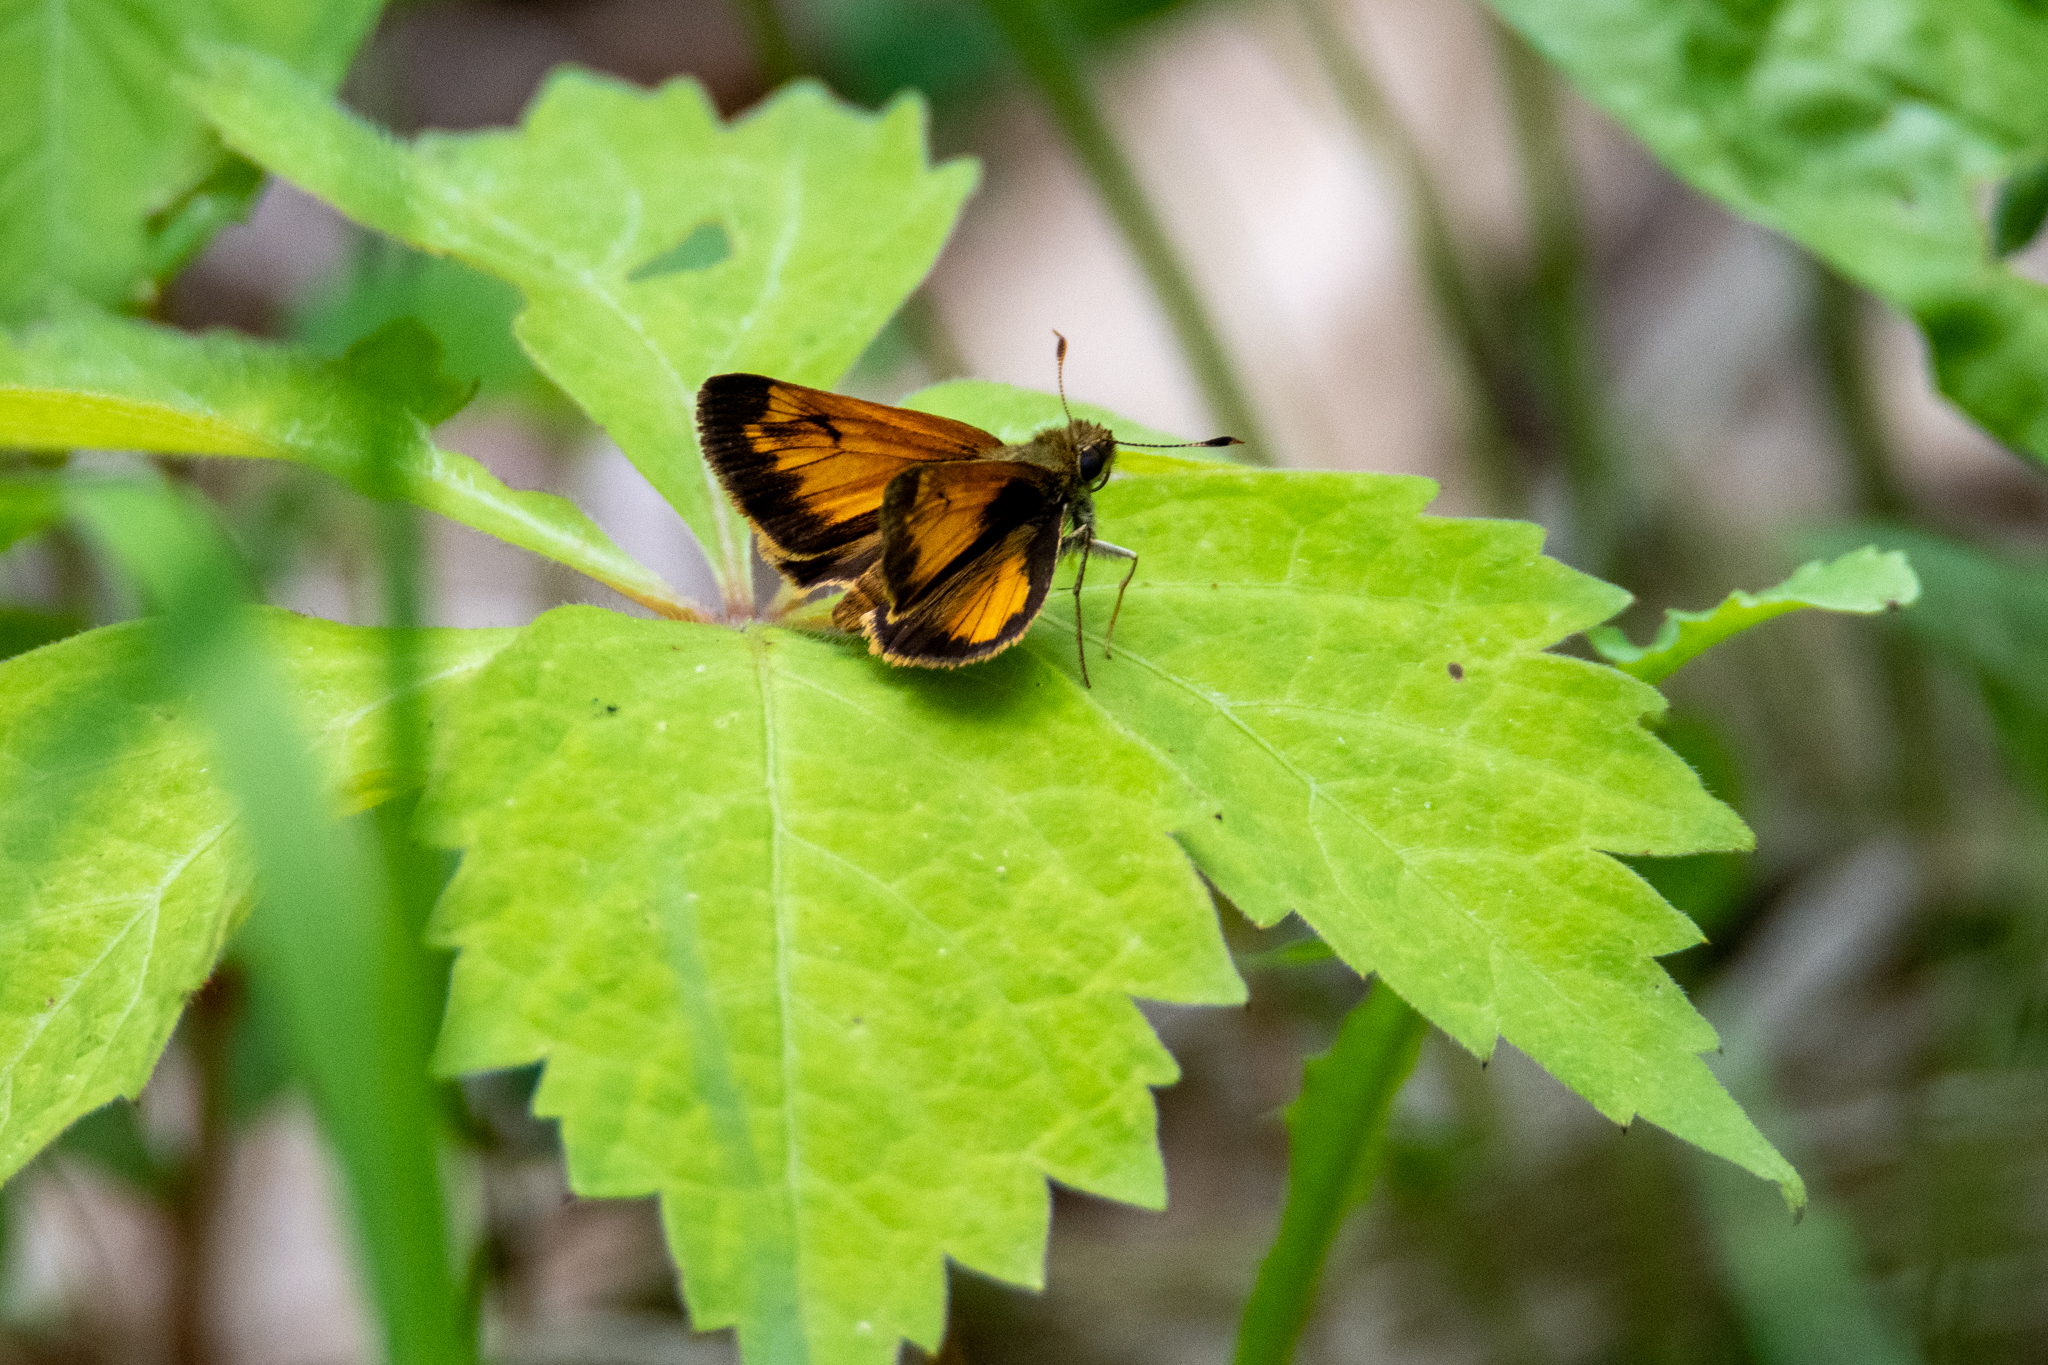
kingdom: Animalia
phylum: Arthropoda
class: Insecta
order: Lepidoptera
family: Hesperiidae
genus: Lon
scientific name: Lon hobomok
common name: Hobomok skipper
